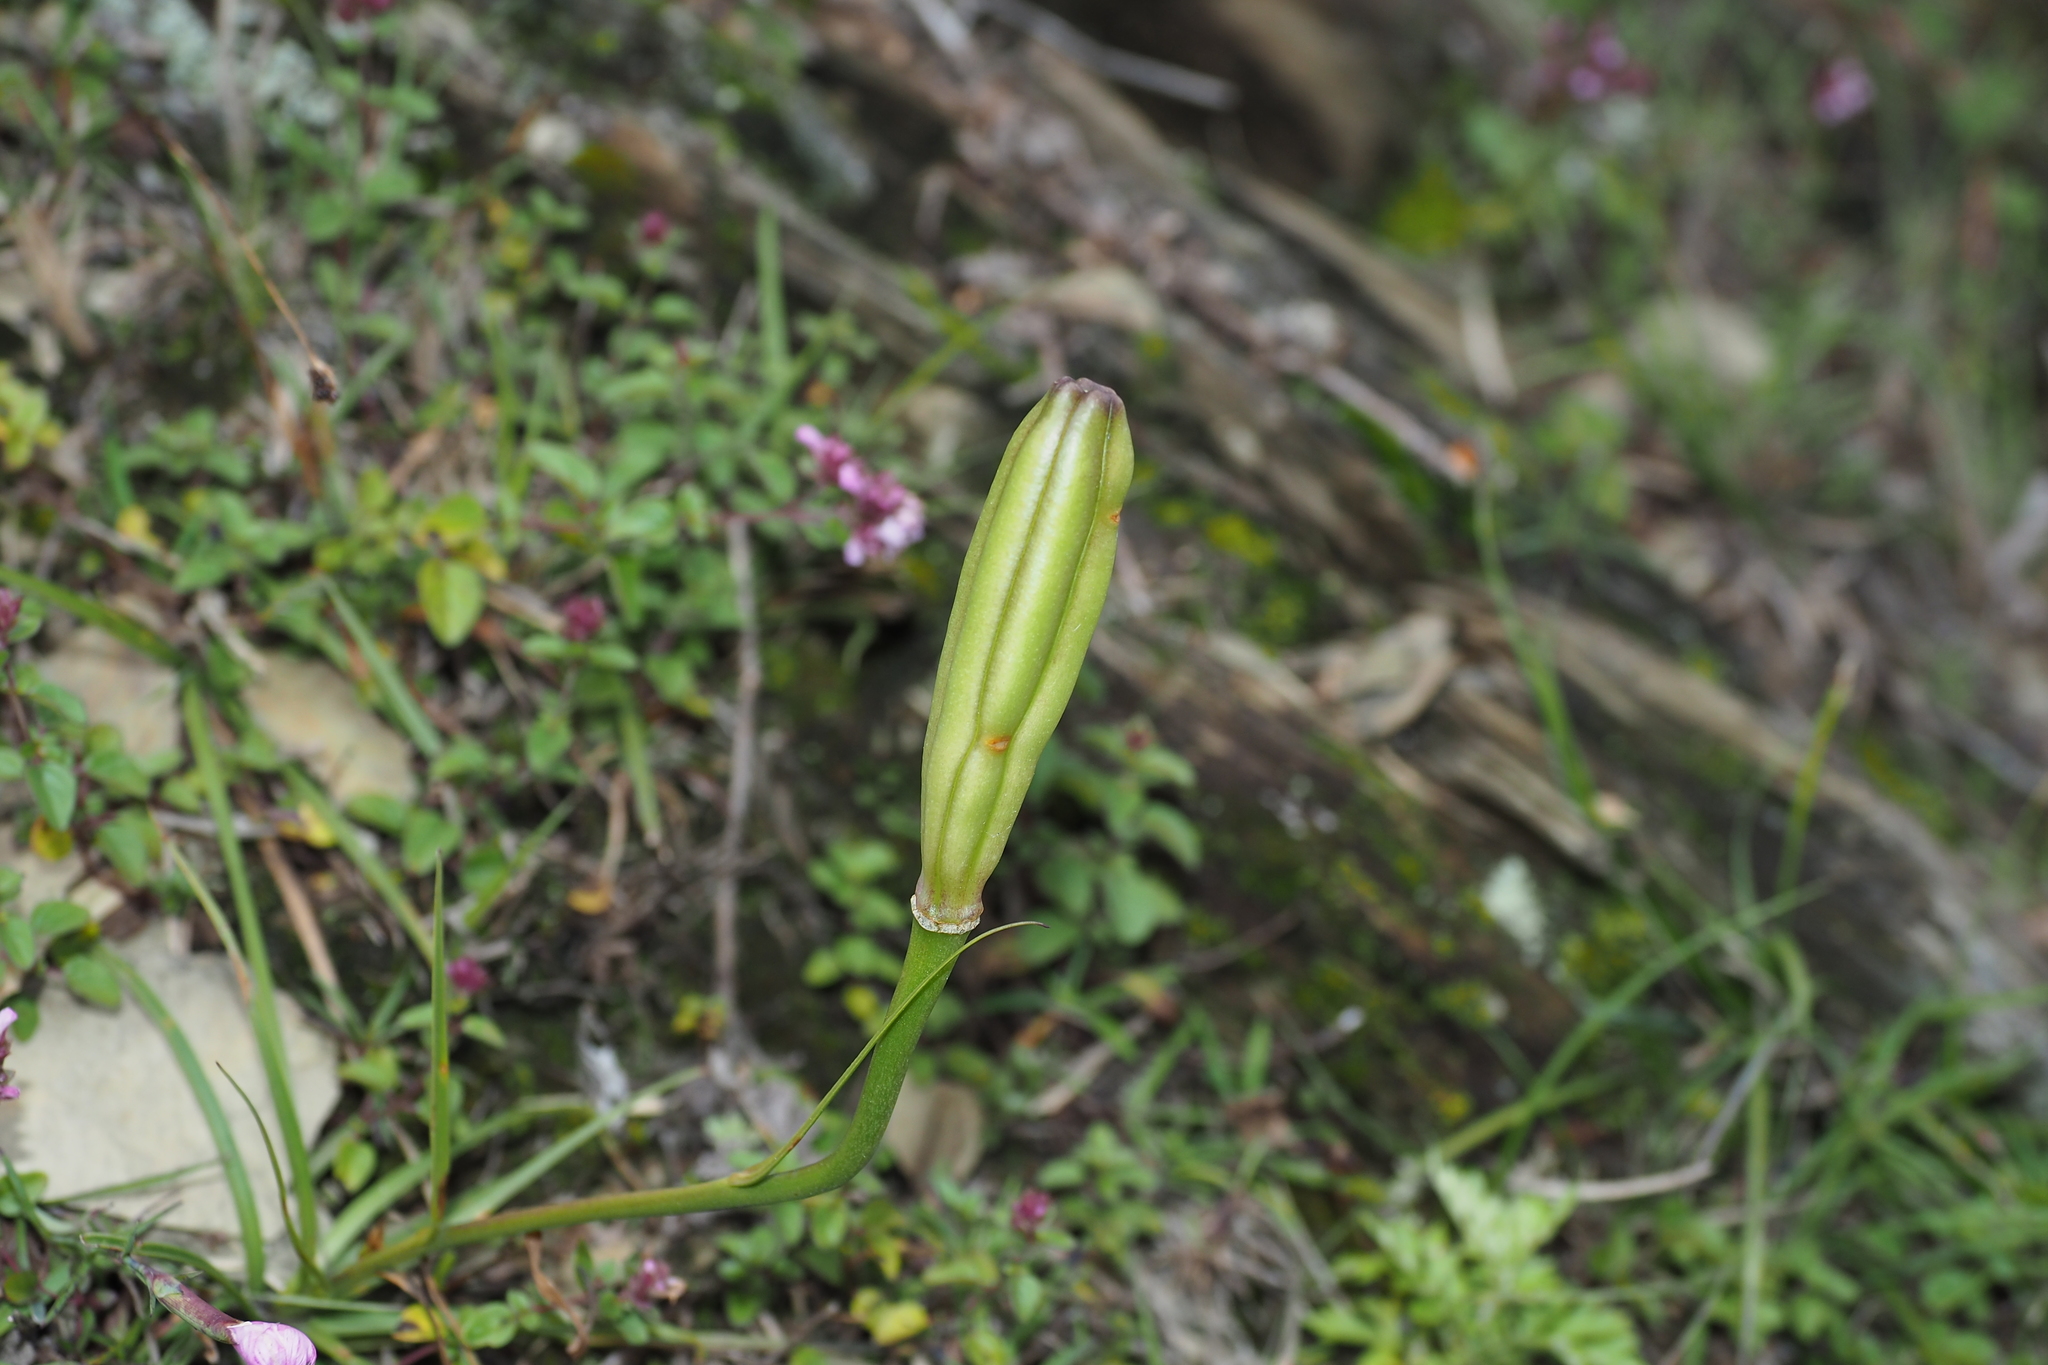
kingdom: Plantae
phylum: Tracheophyta
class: Liliopsida
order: Liliales
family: Liliaceae
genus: Lilium
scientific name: Lilium formosanum
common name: Formosa lily
